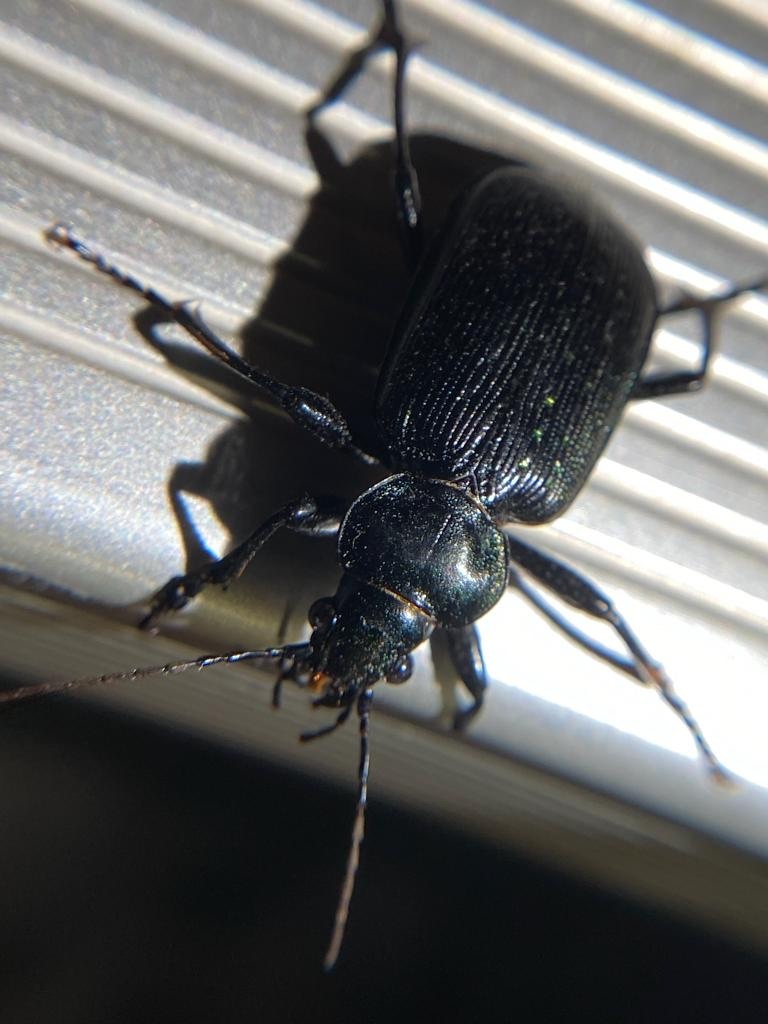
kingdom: Animalia
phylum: Arthropoda
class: Insecta
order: Coleoptera
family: Carabidae
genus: Calosoma
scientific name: Calosoma sayi
